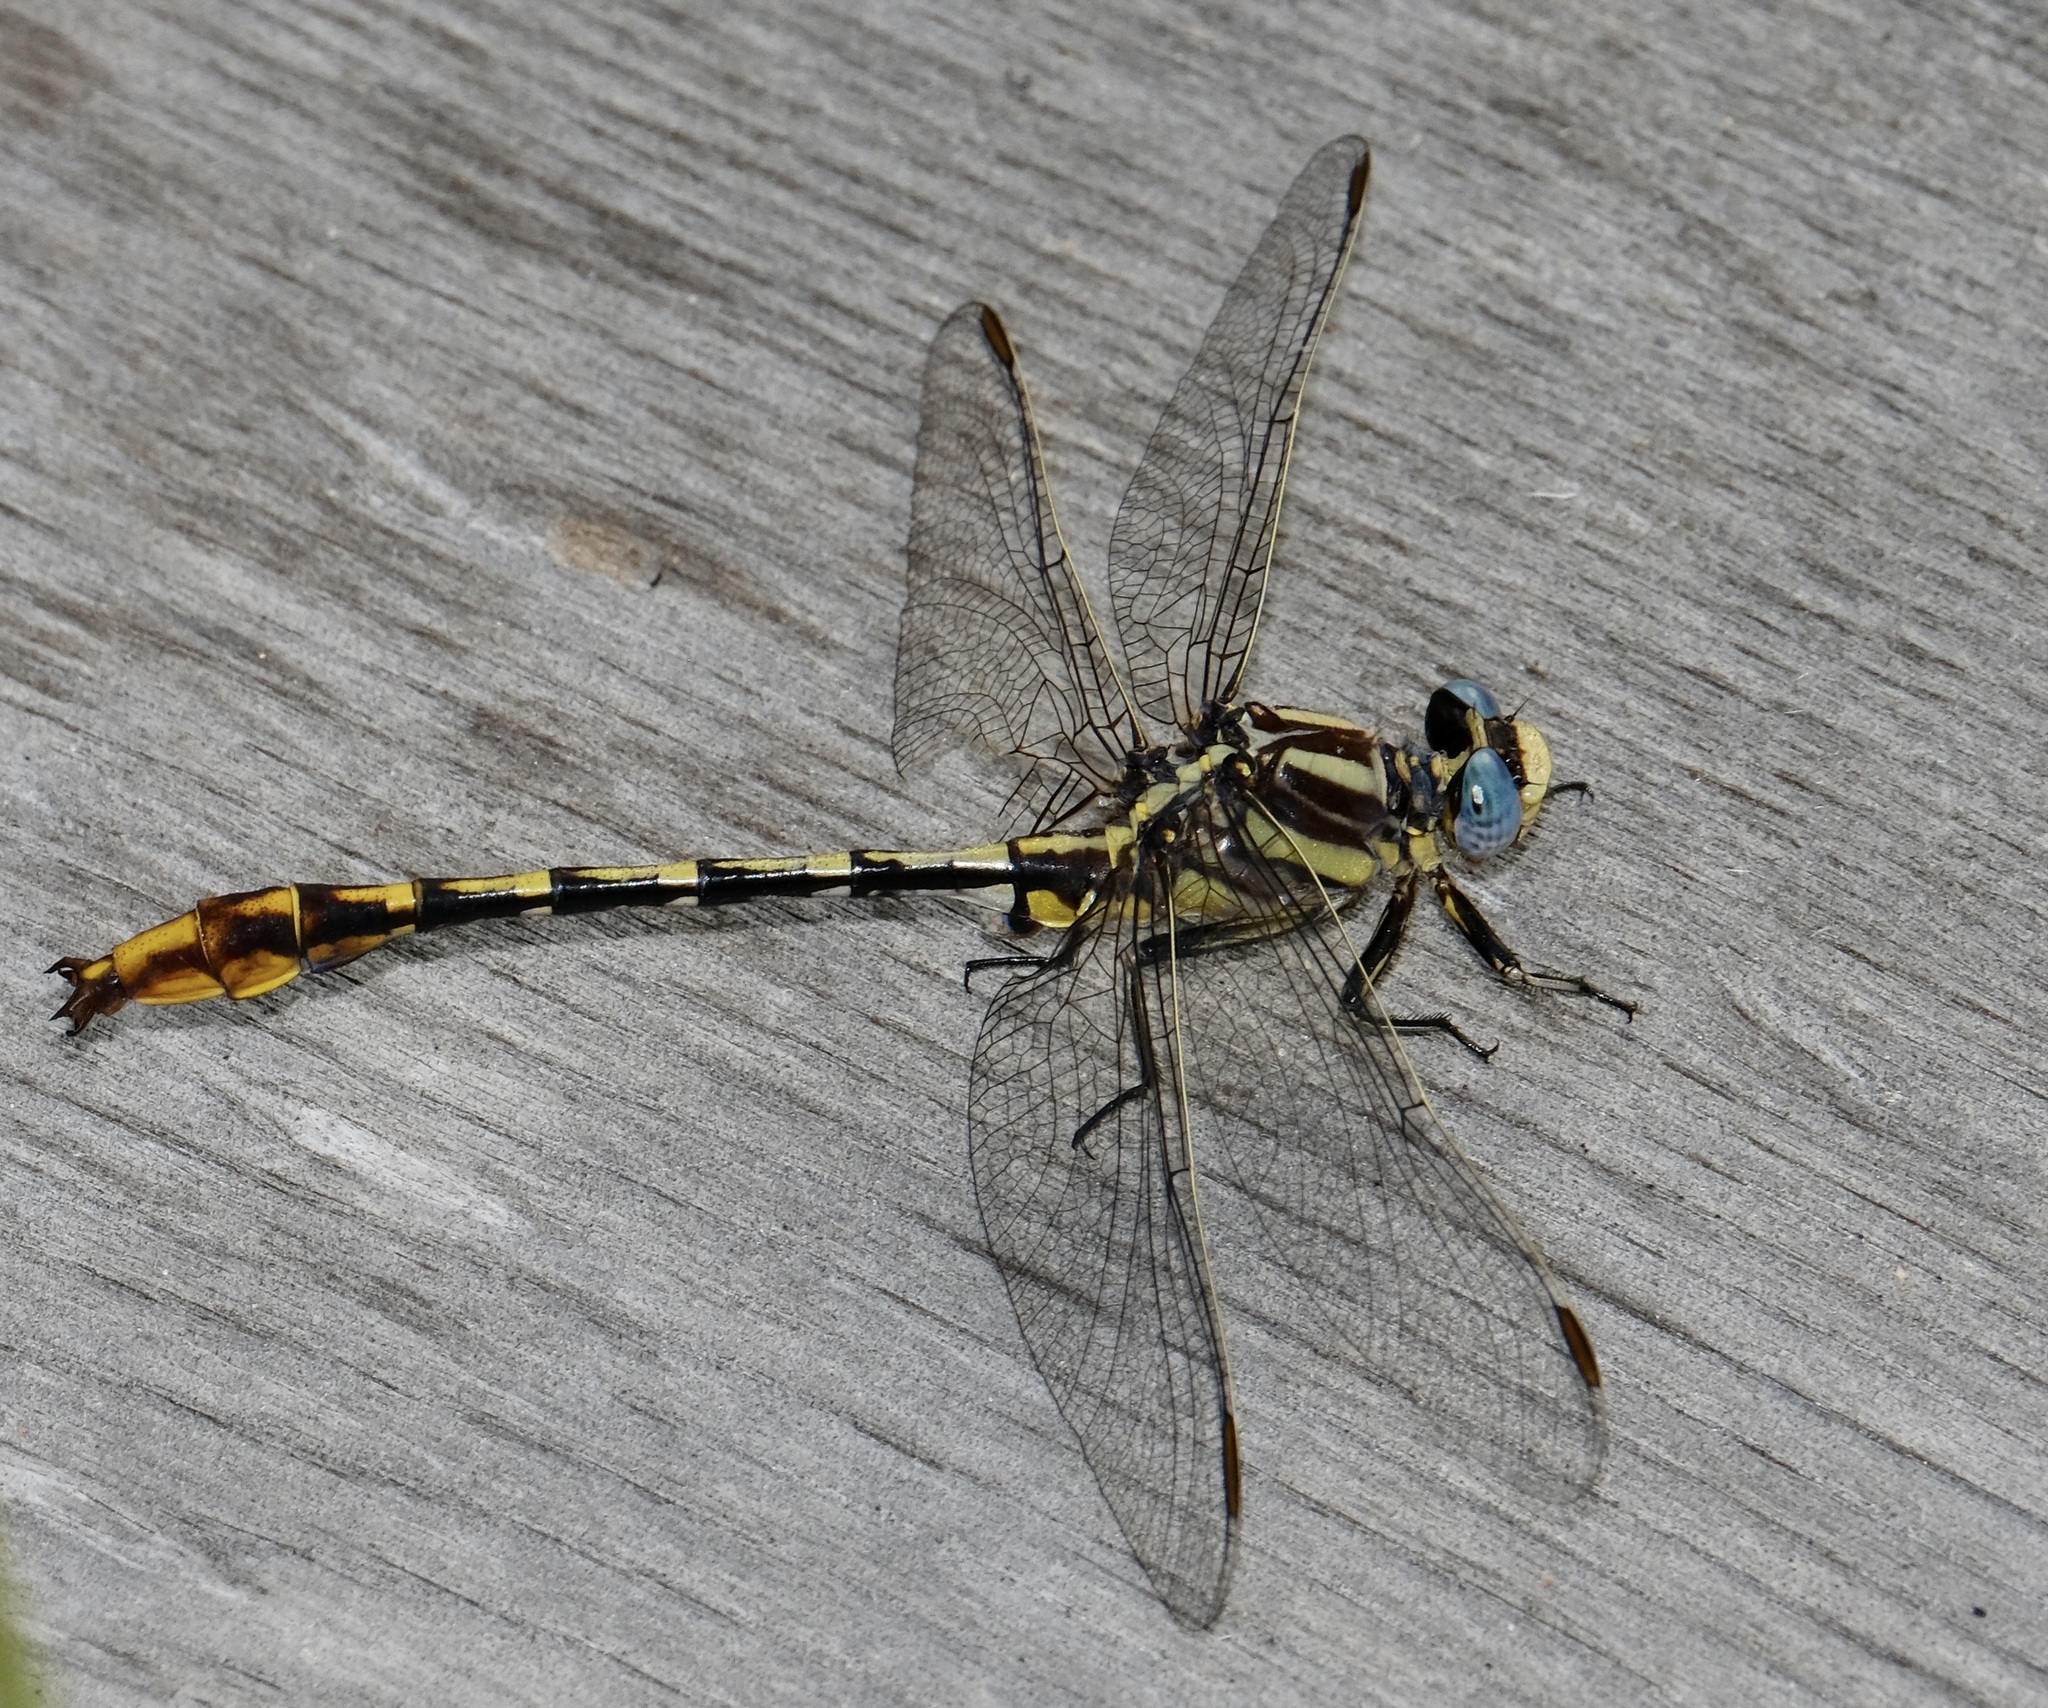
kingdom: Animalia
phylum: Arthropoda
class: Insecta
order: Odonata
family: Gomphidae
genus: Phanogomphus
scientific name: Phanogomphus militaris
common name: Sulphur-tipped clubtail
